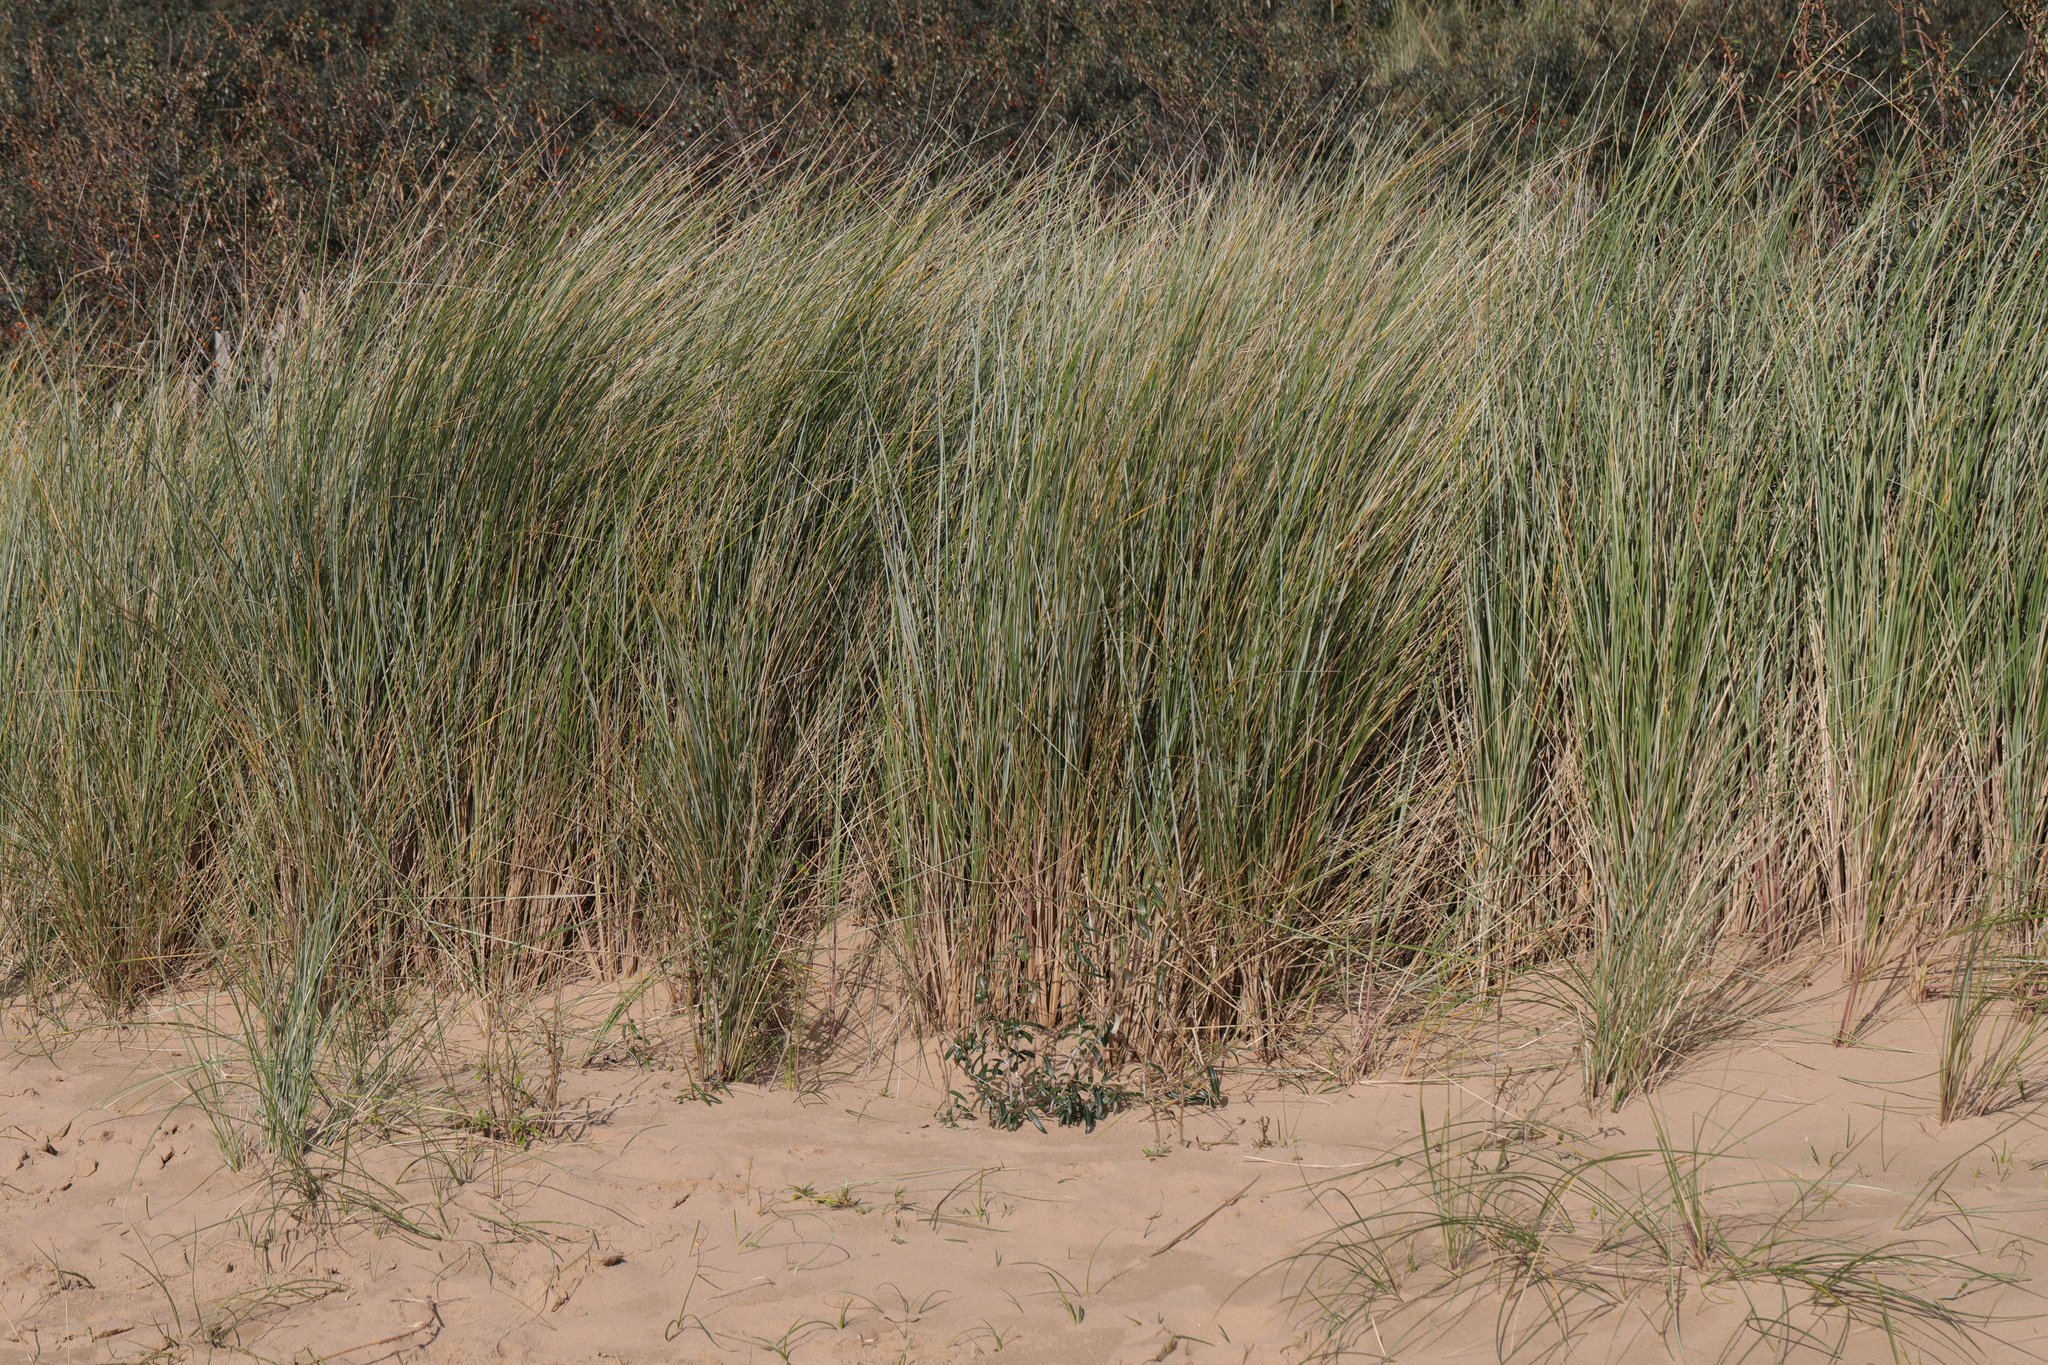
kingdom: Plantae
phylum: Tracheophyta
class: Liliopsida
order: Poales
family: Poaceae
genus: Calamagrostis
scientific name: Calamagrostis arenaria
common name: European beachgrass
